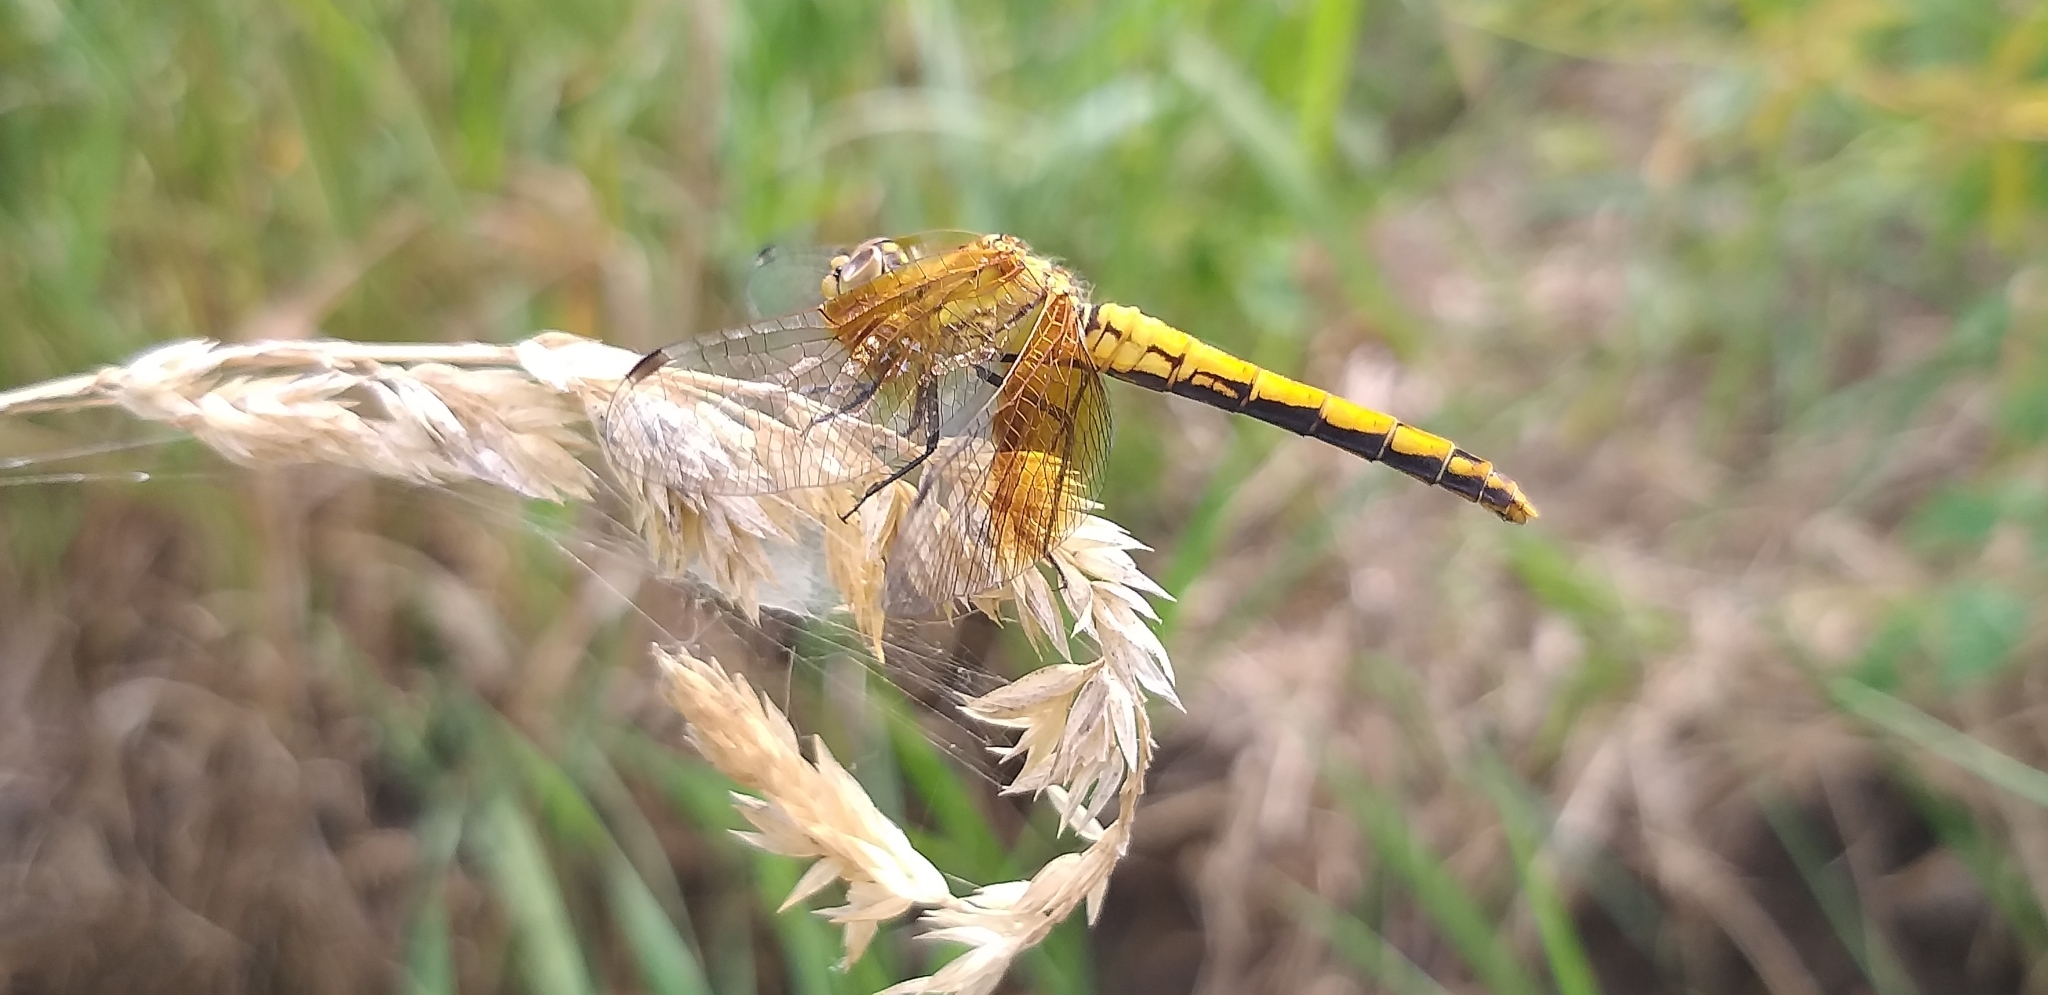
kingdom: Animalia
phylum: Arthropoda
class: Insecta
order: Odonata
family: Libellulidae
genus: Sympetrum
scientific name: Sympetrum semicinctum
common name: Band-winged meadowhawk
